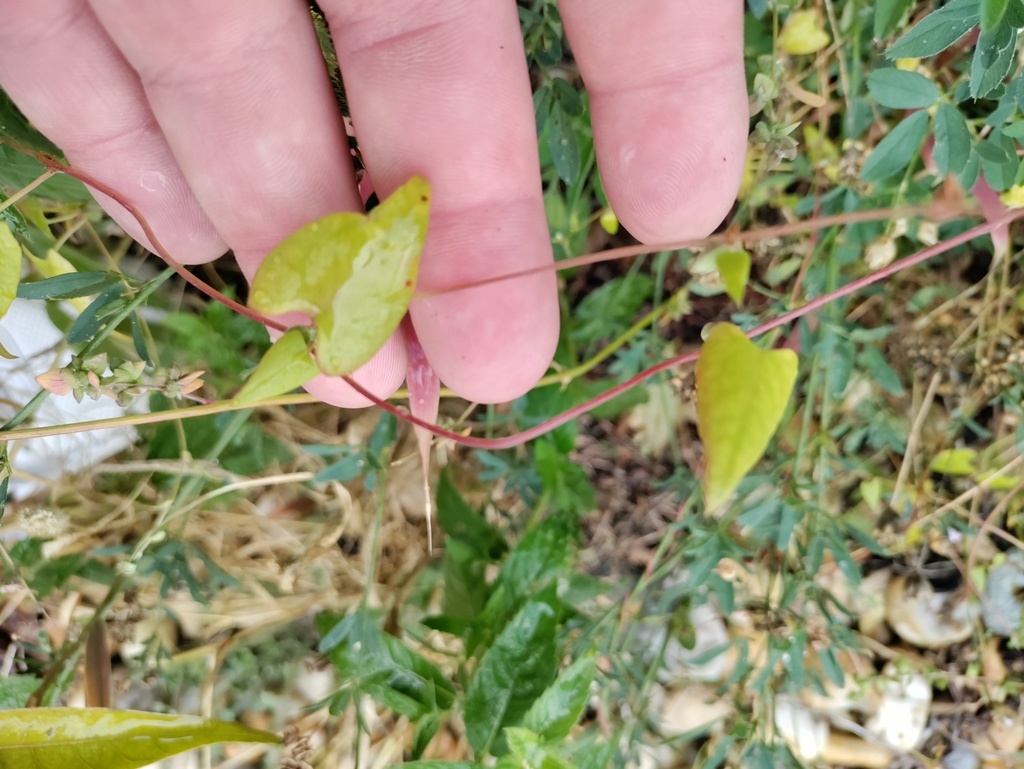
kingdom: Plantae
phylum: Tracheophyta
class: Magnoliopsida
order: Caryophyllales
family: Polygonaceae
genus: Fallopia
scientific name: Fallopia convolvulus
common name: Black bindweed
